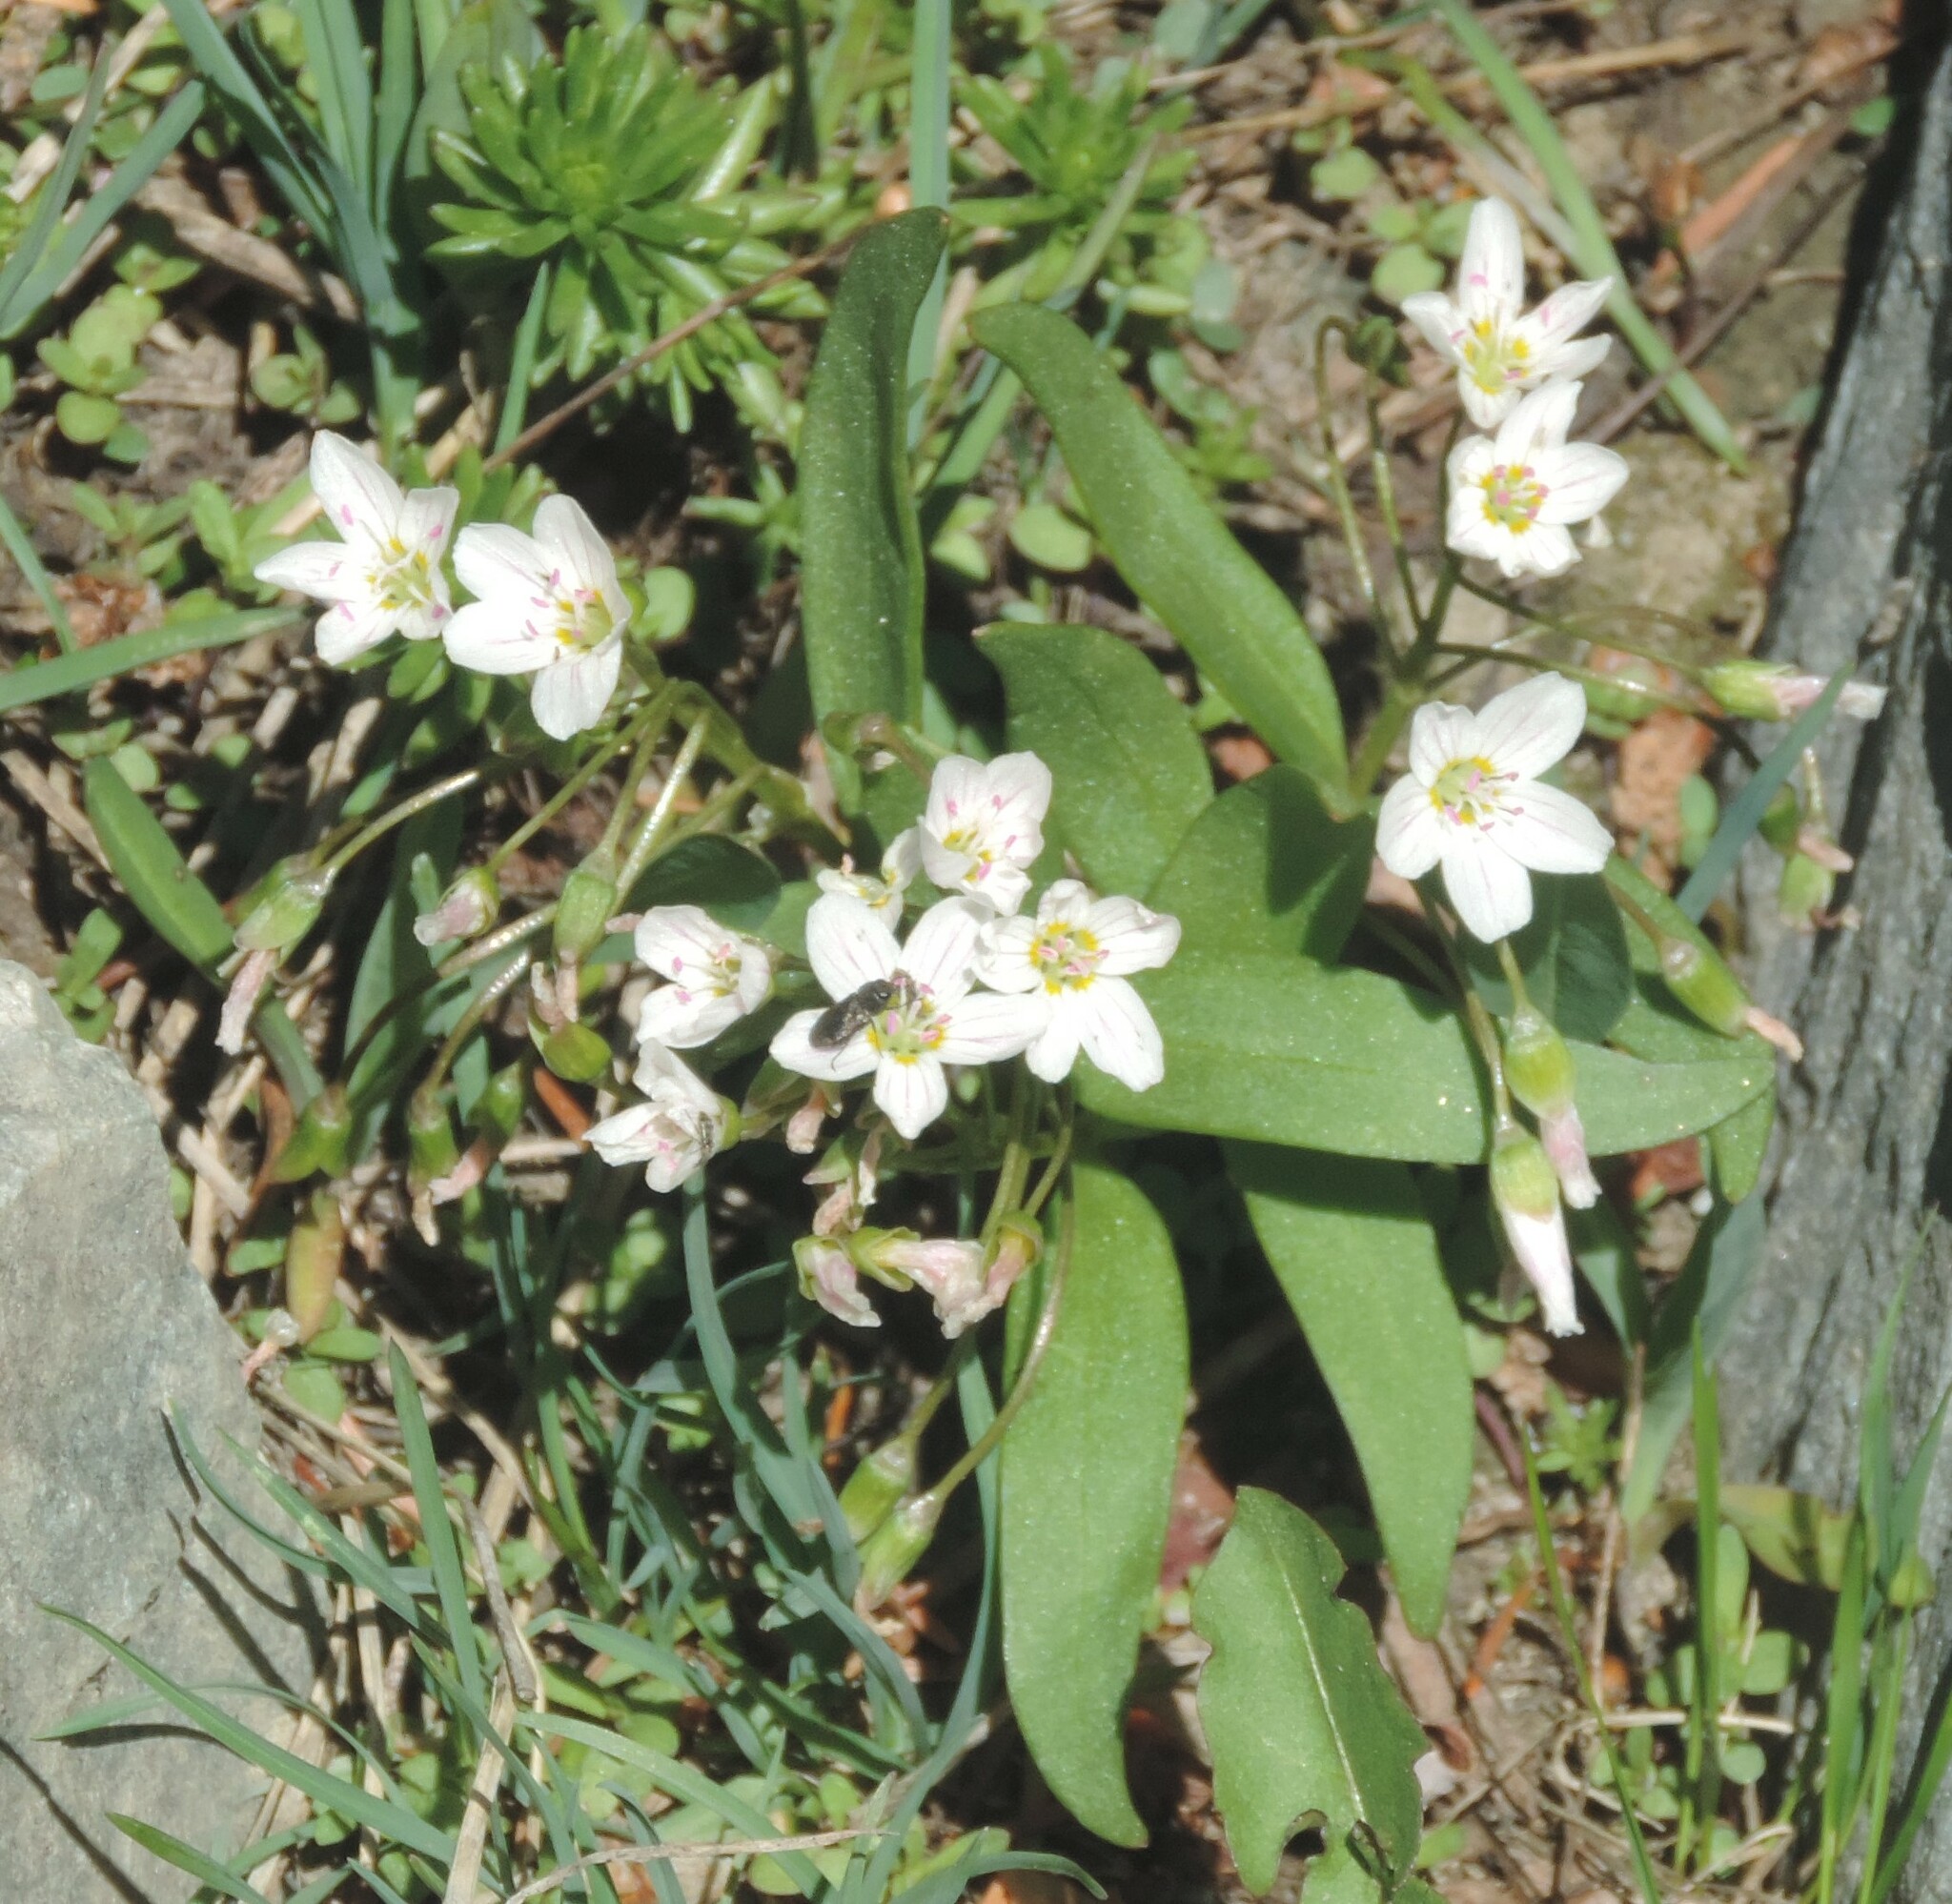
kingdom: Plantae
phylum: Tracheophyta
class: Magnoliopsida
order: Caryophyllales
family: Montiaceae
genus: Claytonia
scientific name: Claytonia lanceolata
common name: Western spring-beauty
